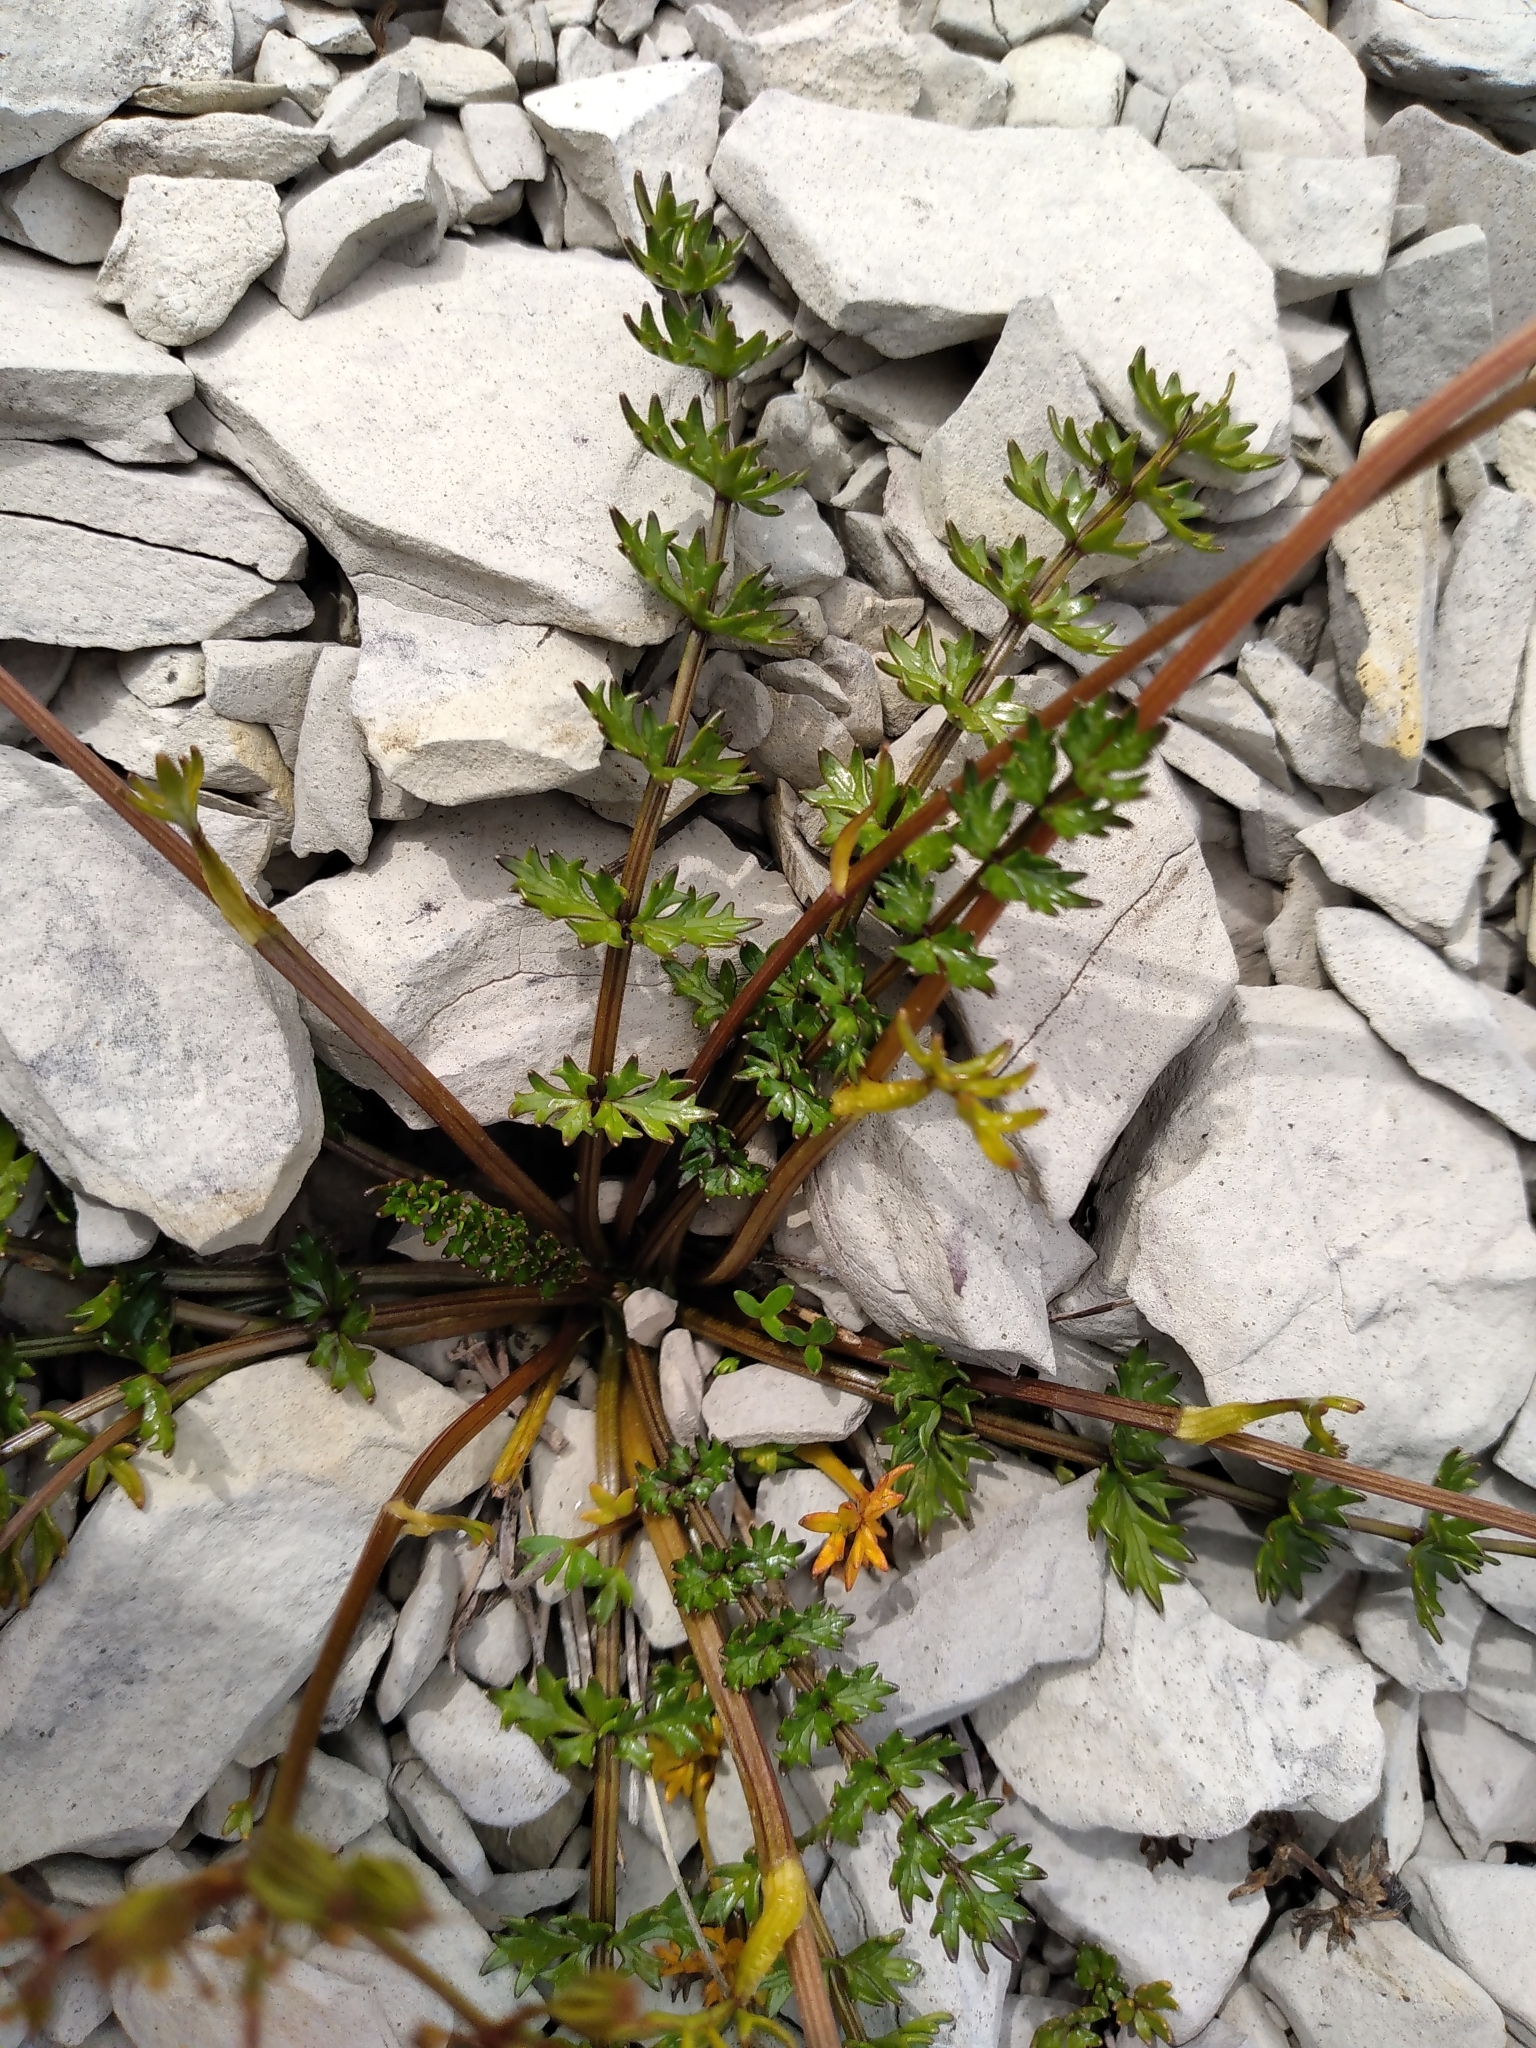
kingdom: Plantae
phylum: Tracheophyta
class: Magnoliopsida
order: Apiales
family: Apiaceae
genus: Gingidia
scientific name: Gingidia decipiens
